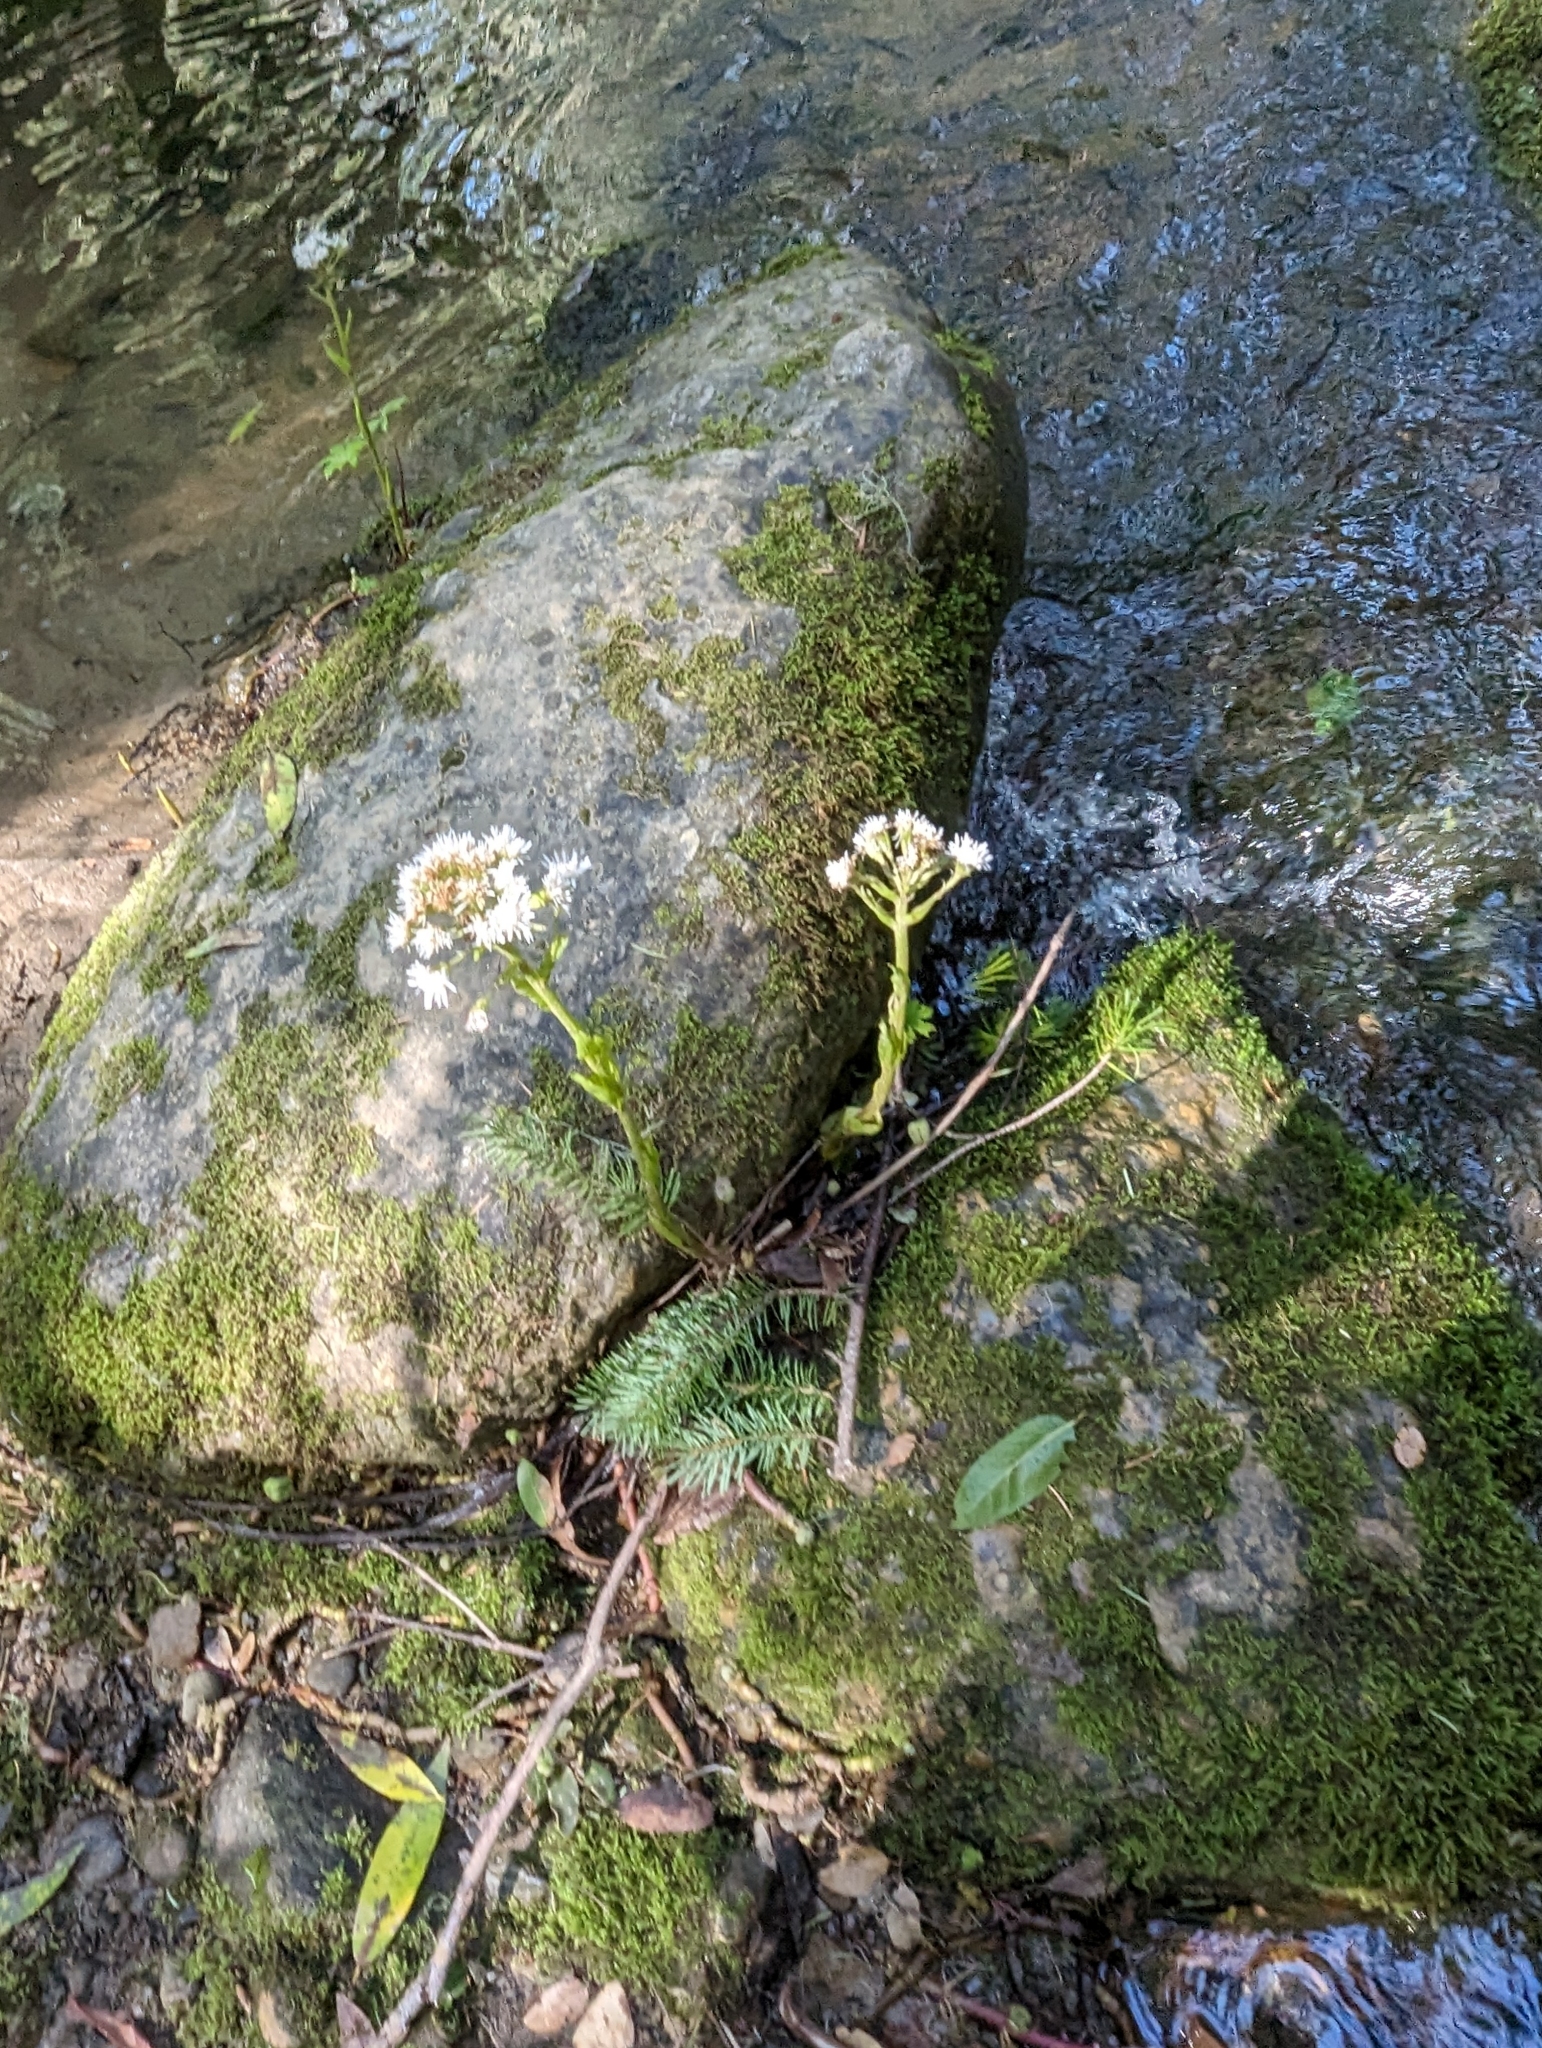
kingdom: Plantae
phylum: Tracheophyta
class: Magnoliopsida
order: Asterales
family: Asteraceae
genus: Petasites
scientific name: Petasites frigidus
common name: Arctic butterbur
